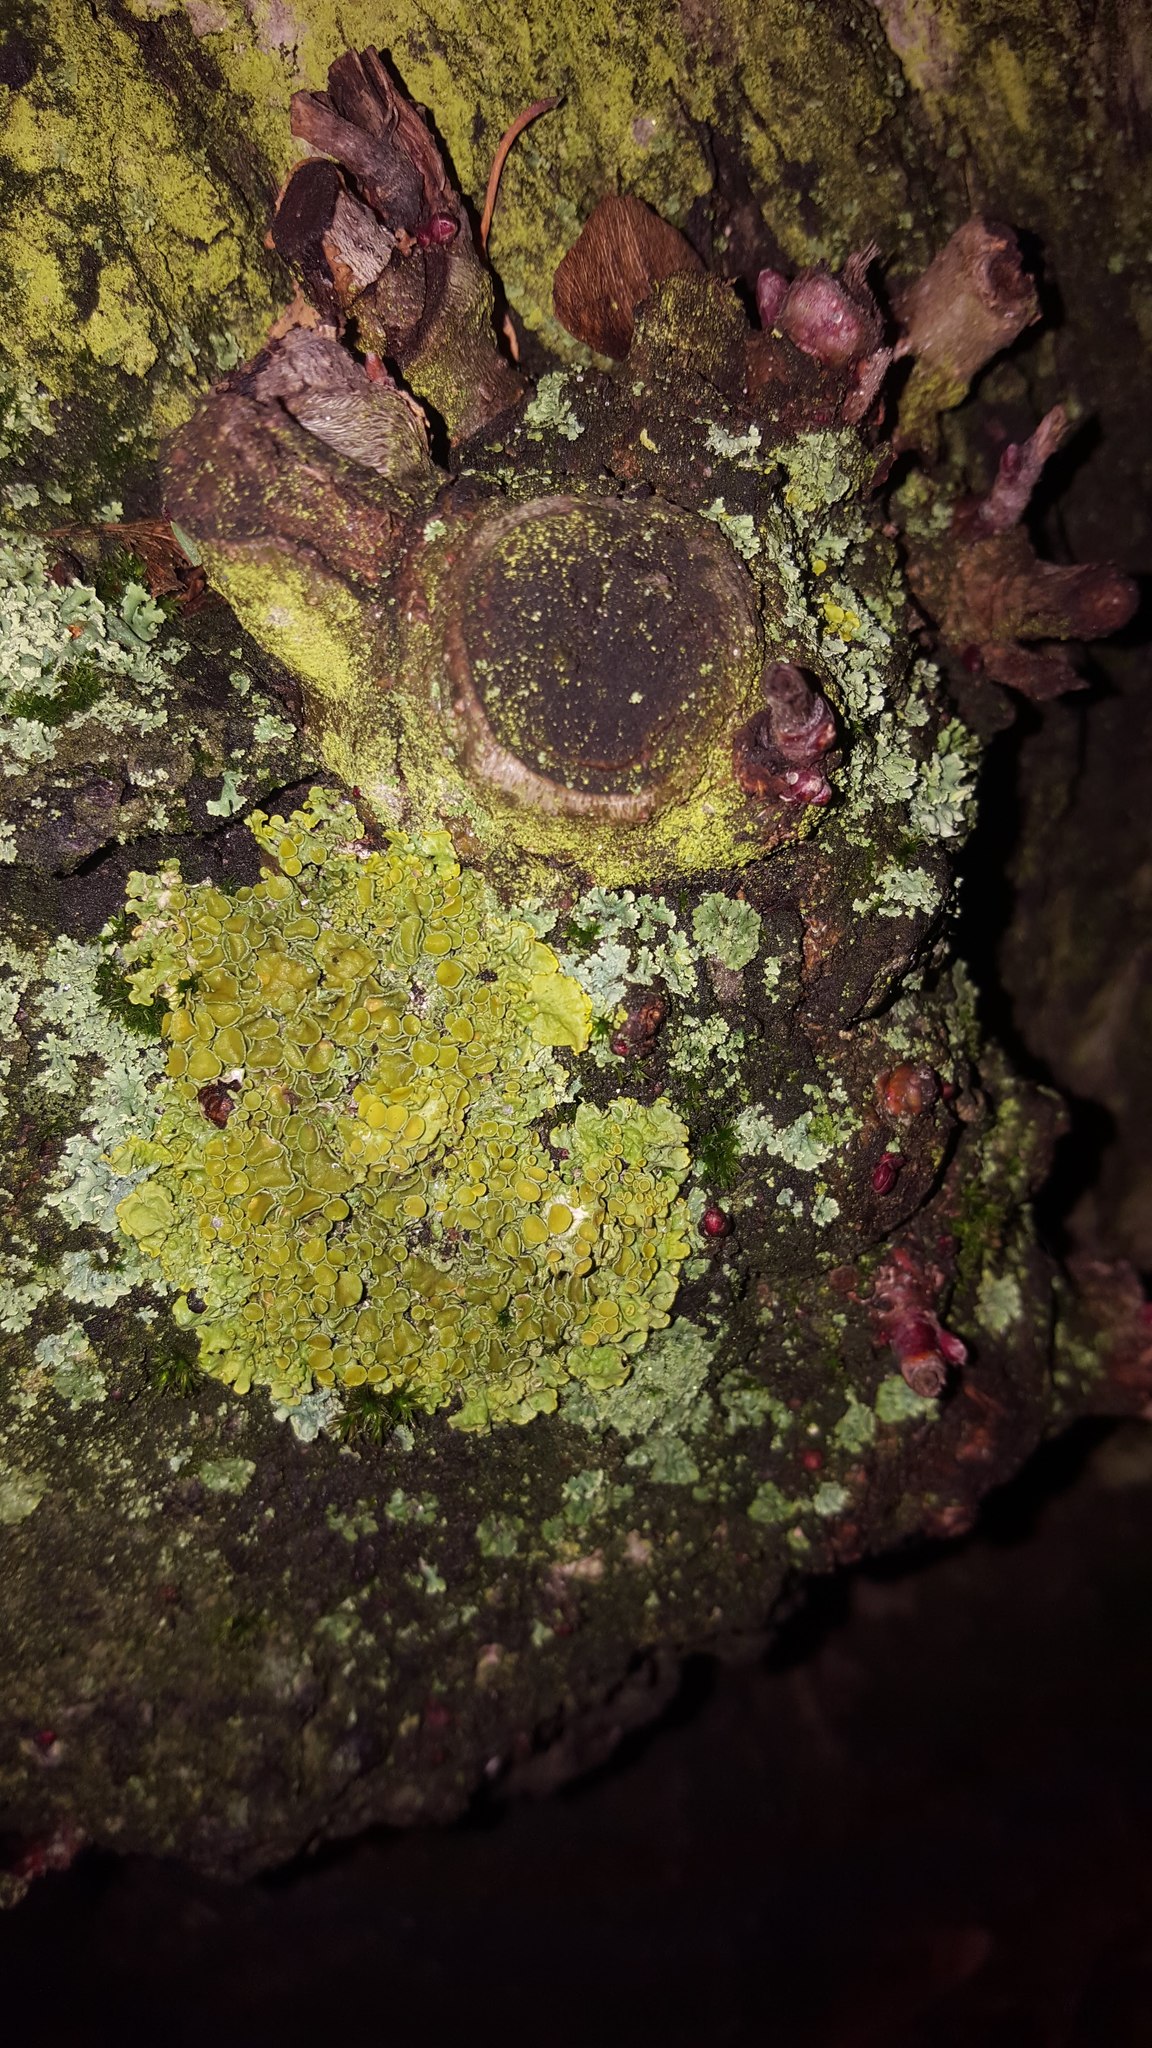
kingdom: Fungi
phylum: Ascomycota
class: Lecanoromycetes
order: Teloschistales
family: Teloschistaceae
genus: Xanthoria
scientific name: Xanthoria parietina
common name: Common orange lichen
